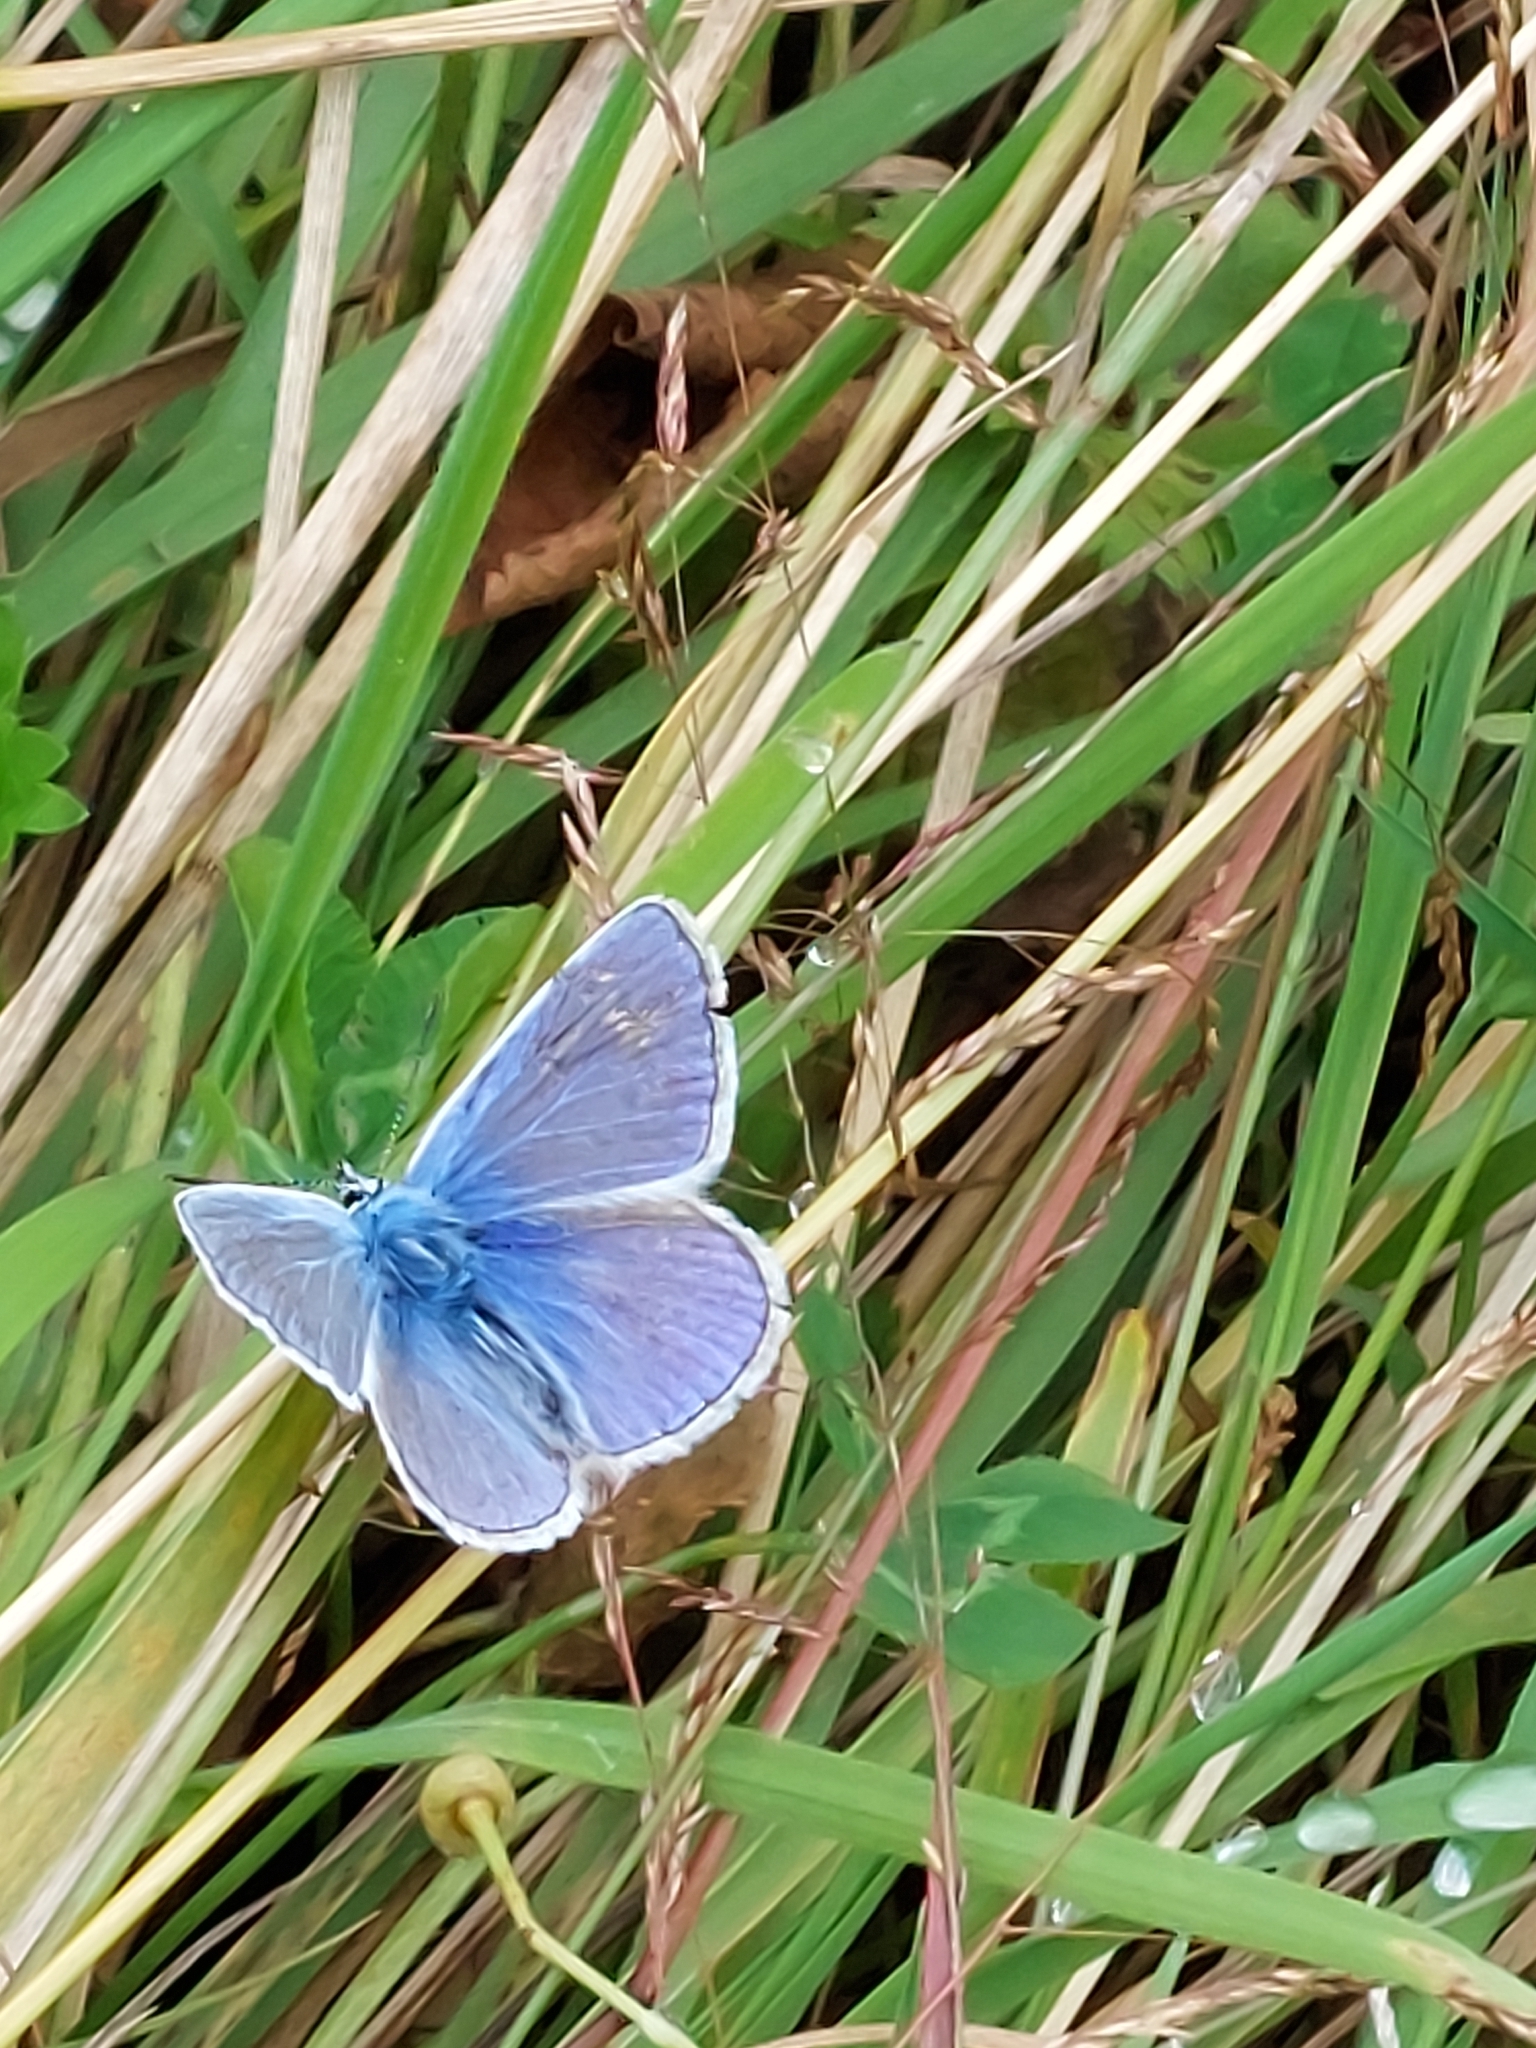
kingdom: Animalia
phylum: Arthropoda
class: Insecta
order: Lepidoptera
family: Lycaenidae
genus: Polyommatus
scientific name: Polyommatus icarus
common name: Common blue
